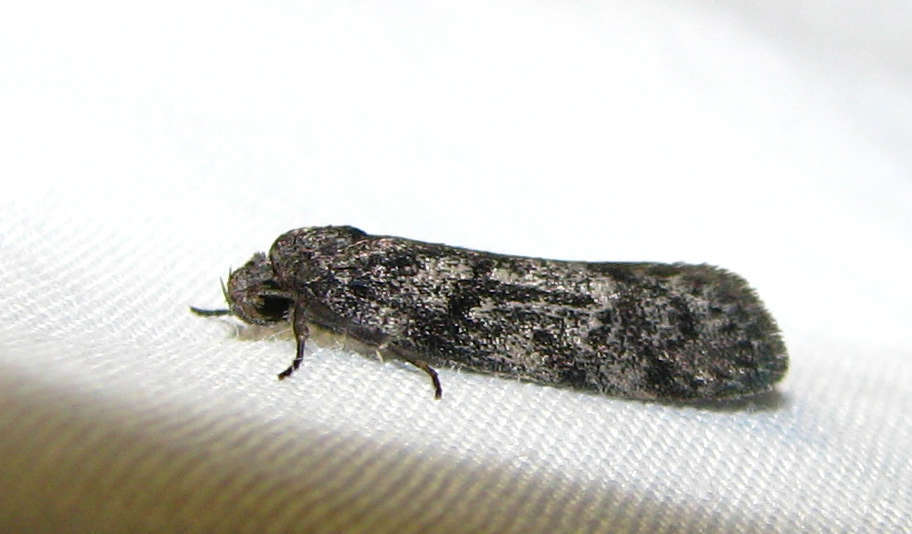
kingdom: Animalia
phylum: Arthropoda
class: Insecta
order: Lepidoptera
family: Oecophoridae
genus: Ericrypsina
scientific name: Ericrypsina chorodoxa
